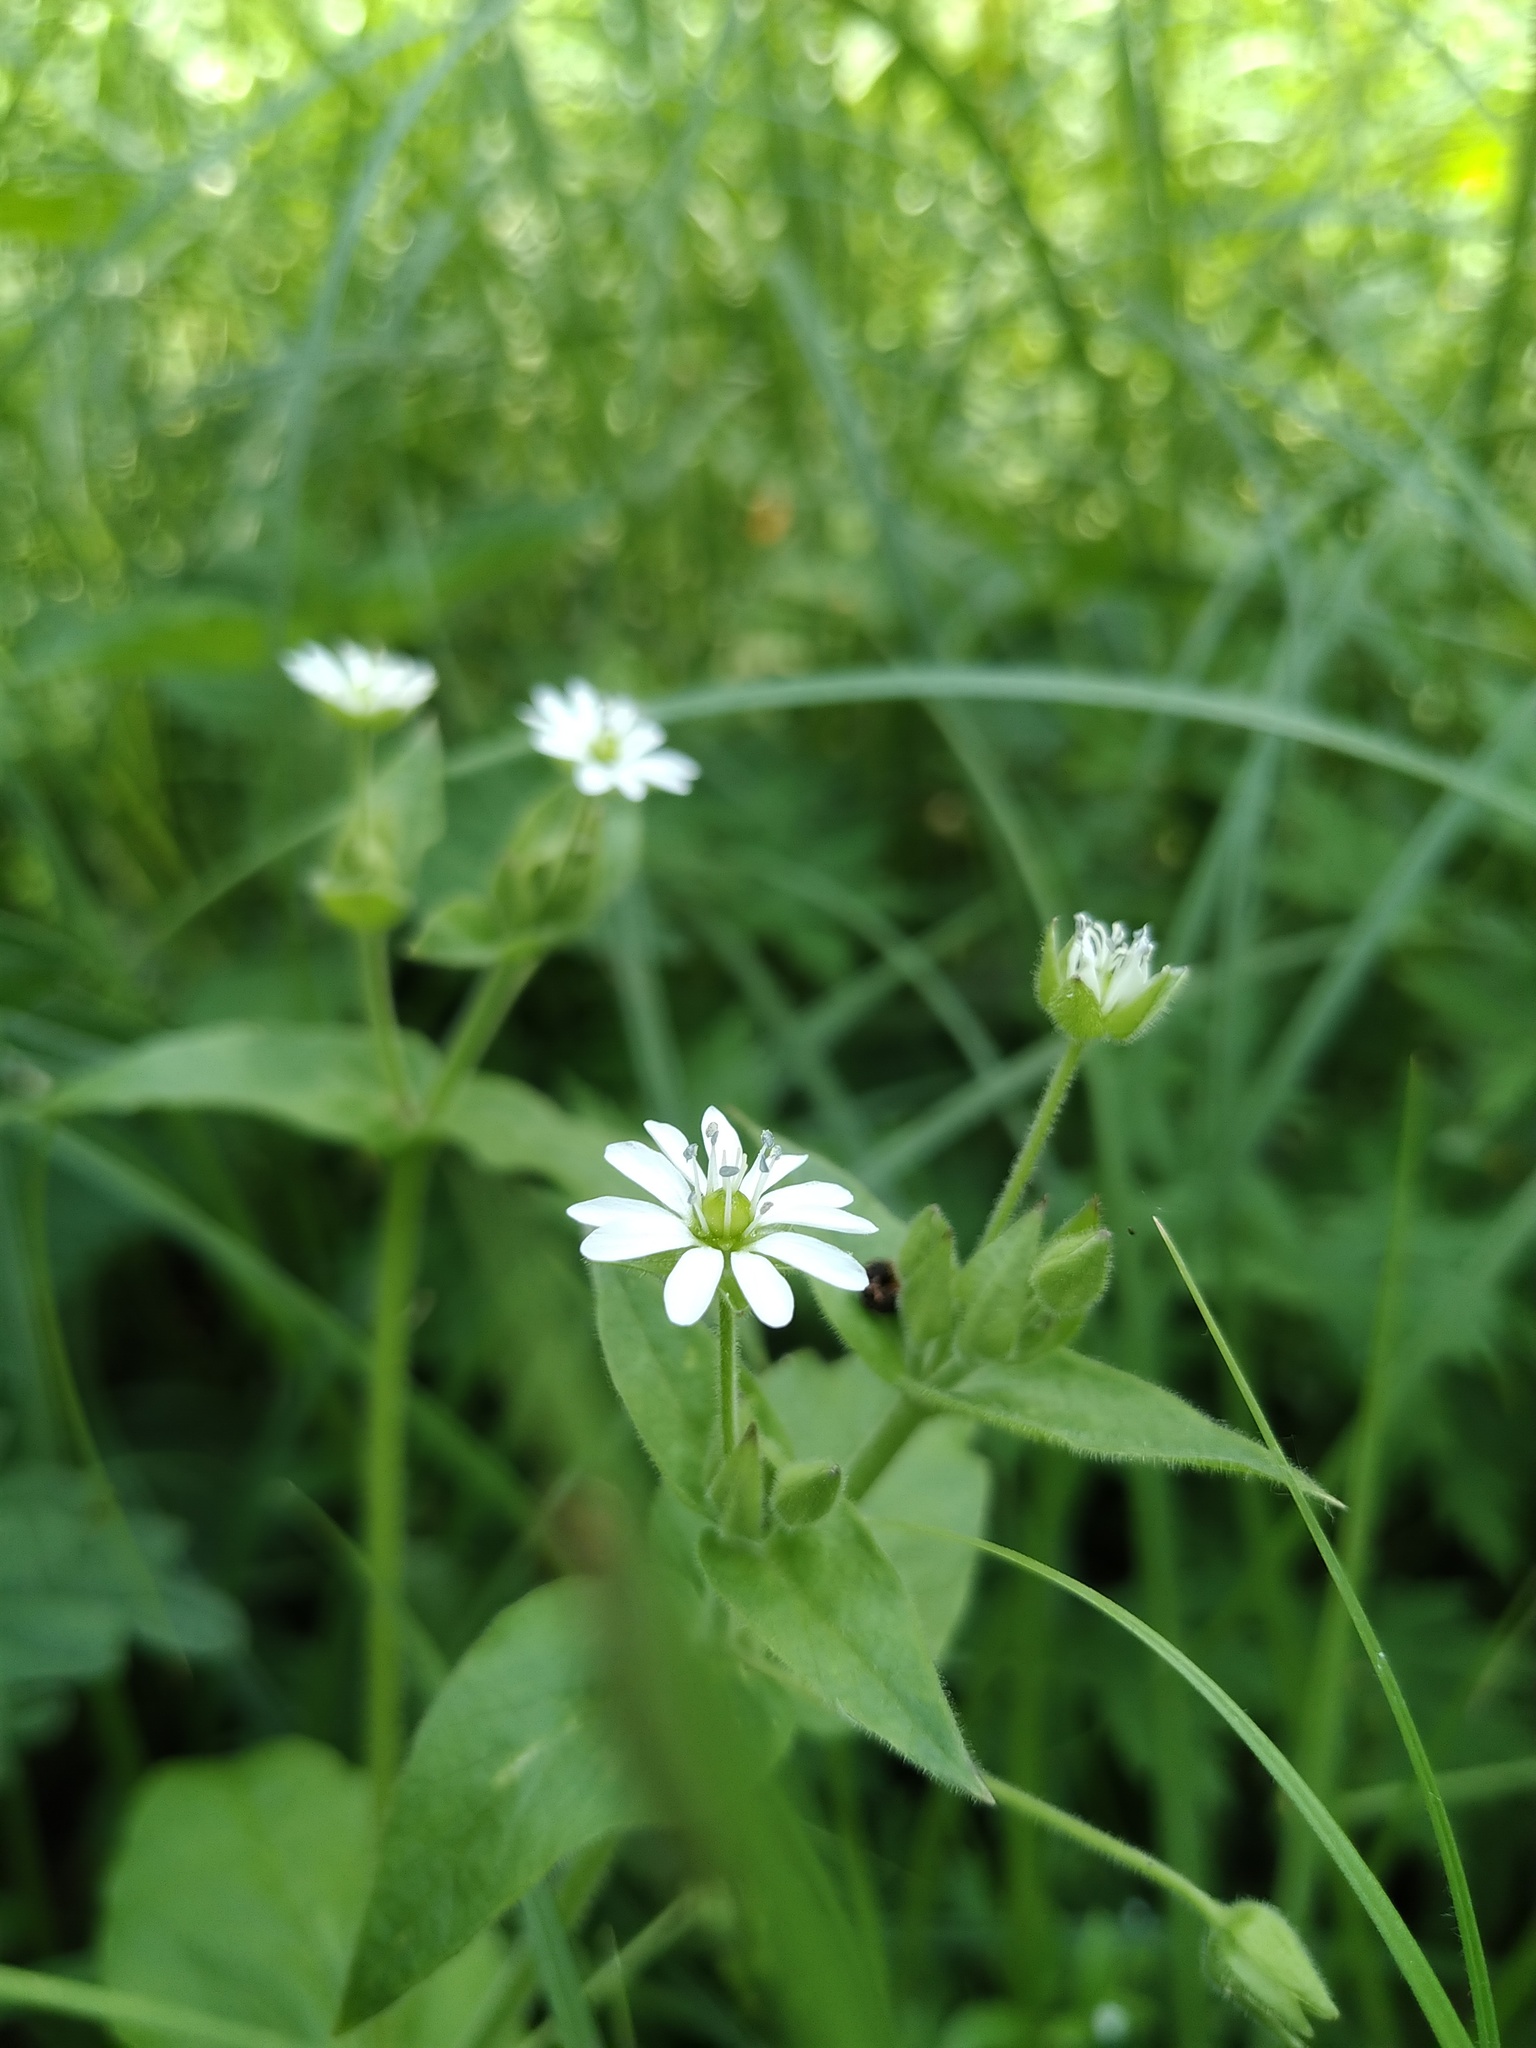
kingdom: Plantae
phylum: Tracheophyta
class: Magnoliopsida
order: Caryophyllales
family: Caryophyllaceae
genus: Stellaria
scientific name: Stellaria aquatica
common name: Water chickweed
